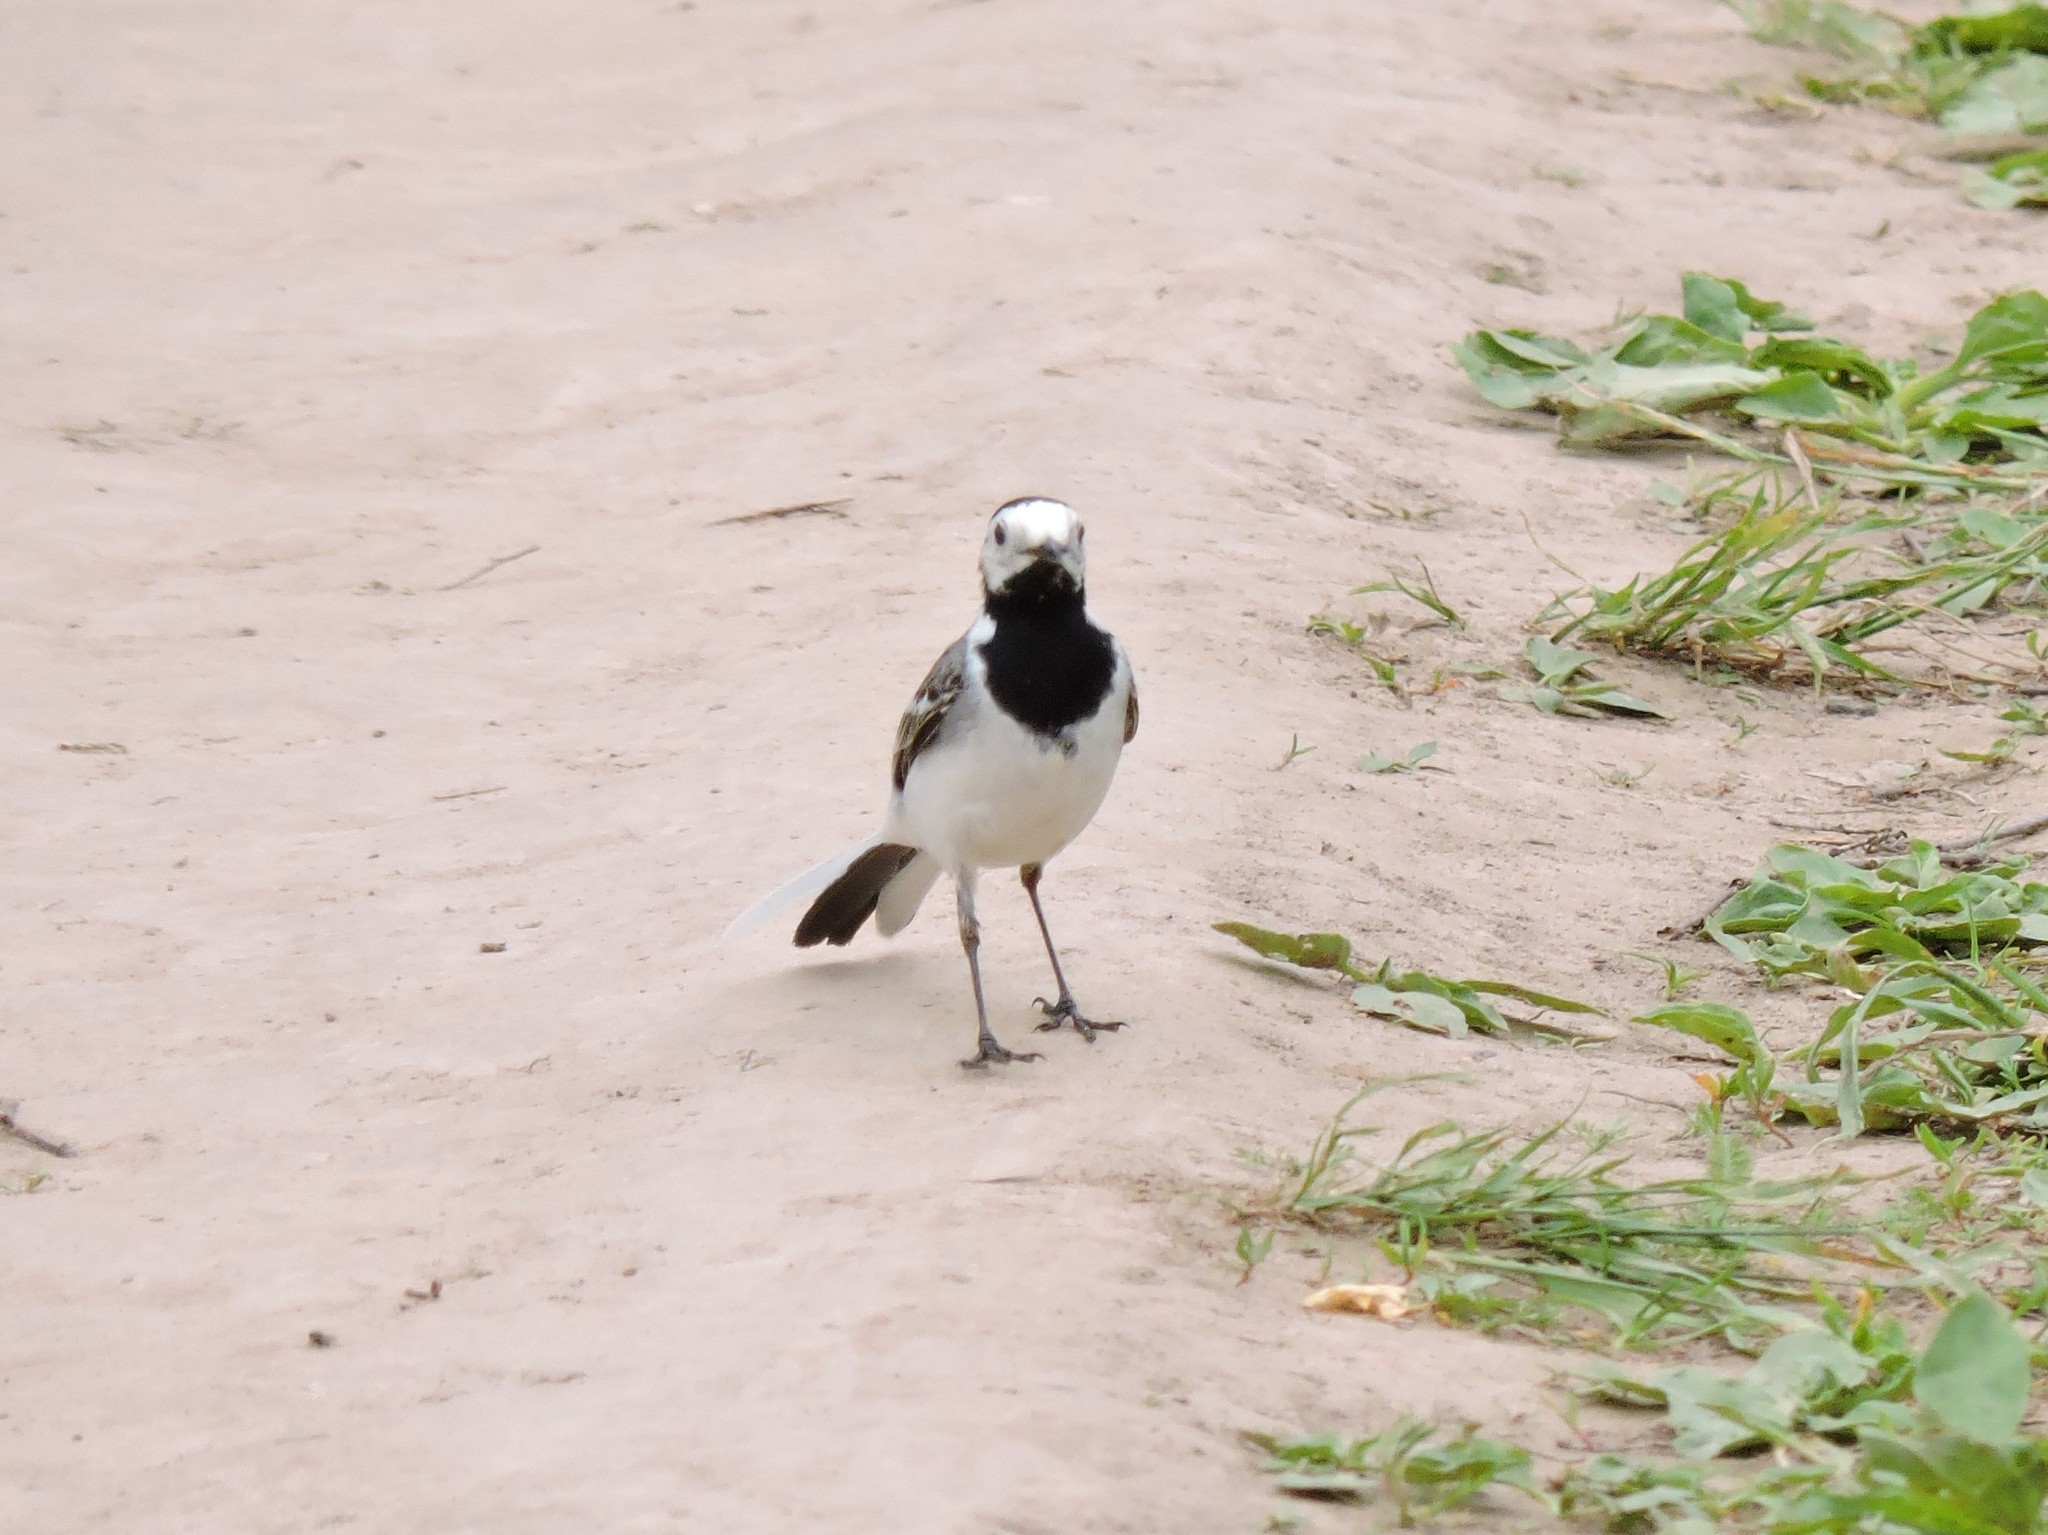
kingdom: Animalia
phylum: Chordata
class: Aves
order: Passeriformes
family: Motacillidae
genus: Motacilla
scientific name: Motacilla alba
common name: White wagtail
